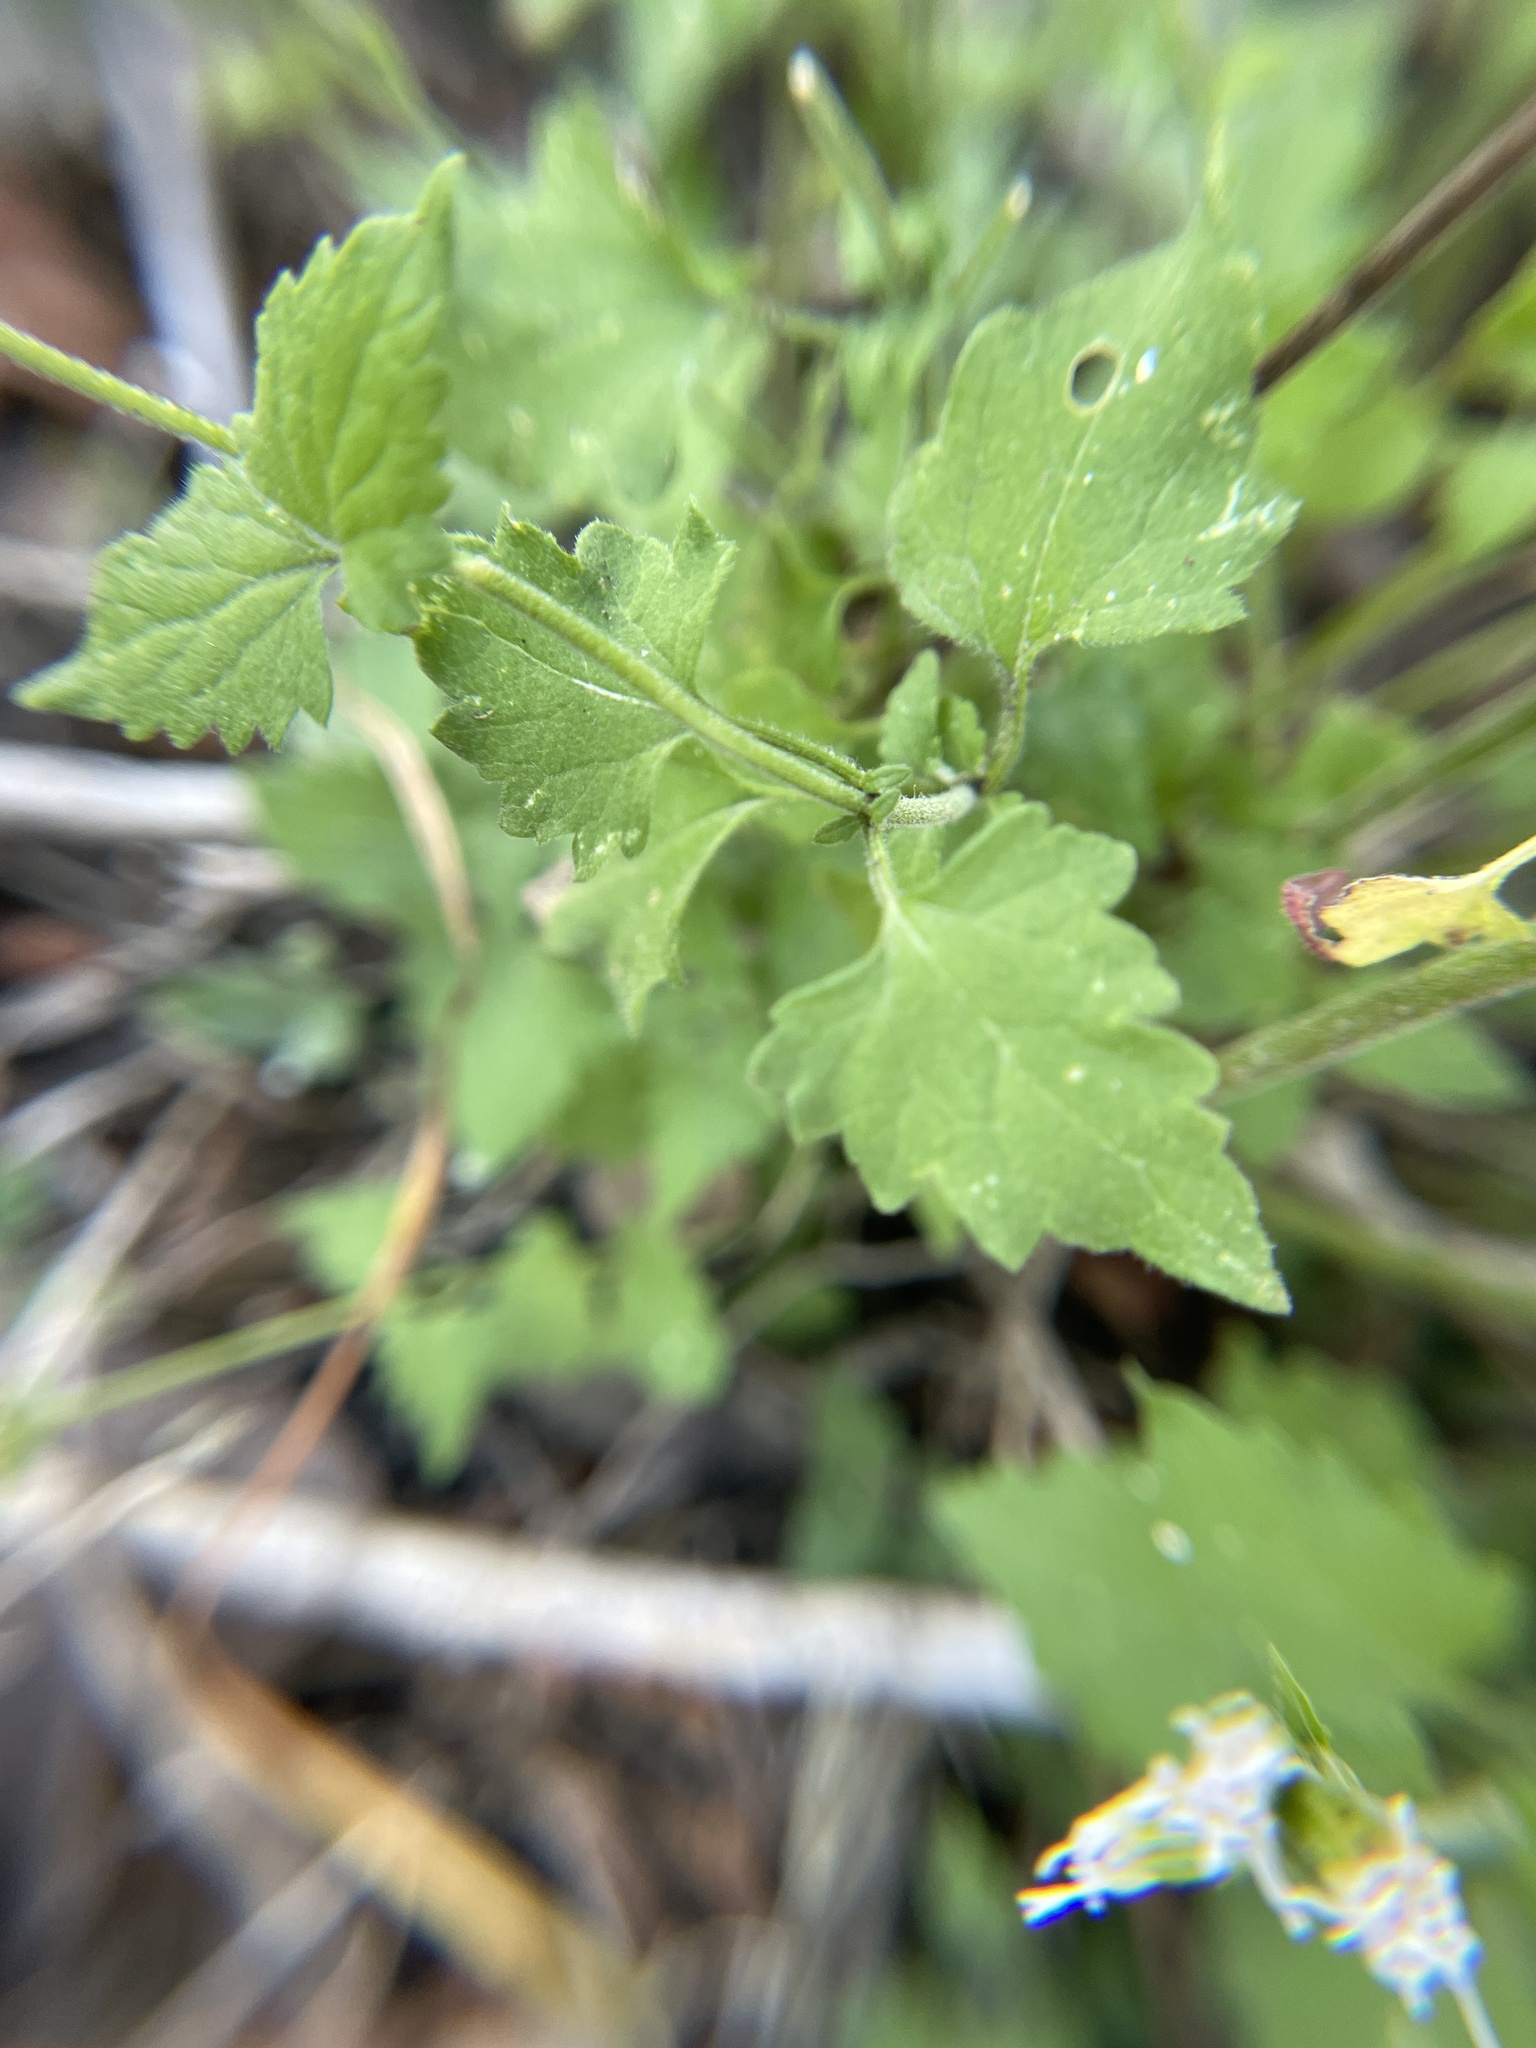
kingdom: Plantae
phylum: Tracheophyta
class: Magnoliopsida
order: Asterales
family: Asteraceae
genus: Fleischmannia
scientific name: Fleischmannia incarnata
